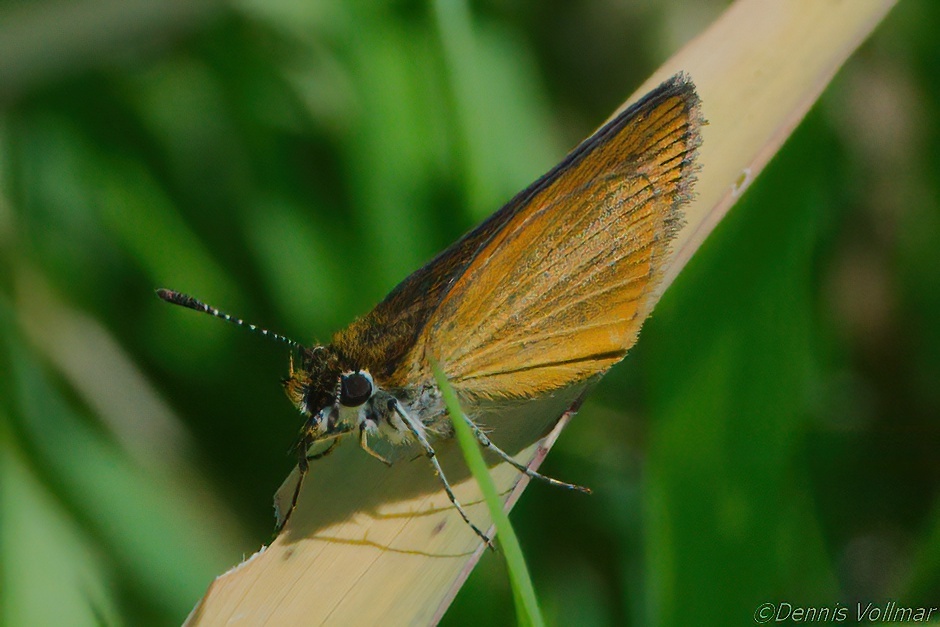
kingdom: Animalia
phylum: Arthropoda
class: Insecta
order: Lepidoptera
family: Hesperiidae
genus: Ancyloxypha
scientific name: Ancyloxypha numitor
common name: Least skipper
